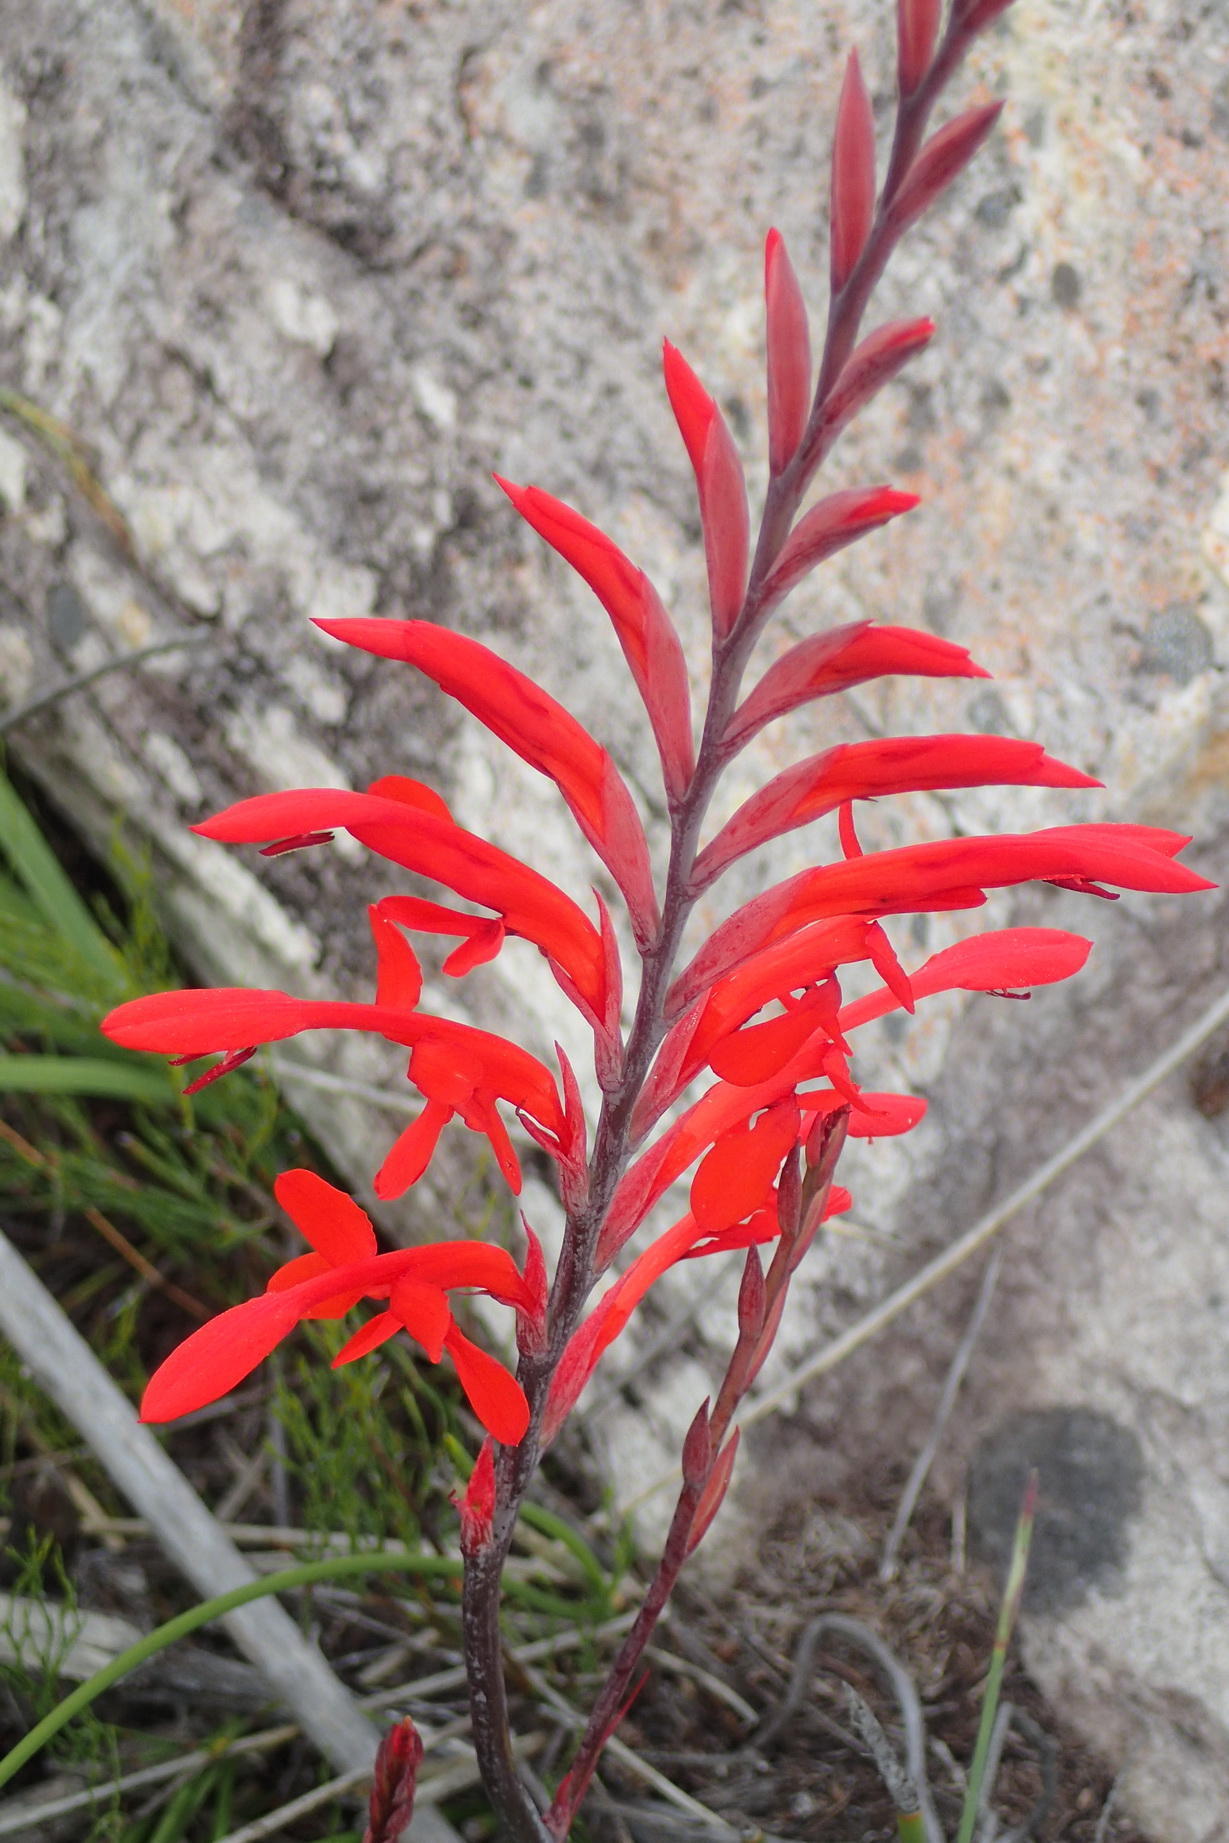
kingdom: Plantae
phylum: Tracheophyta
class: Liliopsida
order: Asparagales
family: Iridaceae
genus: Tritoniopsis
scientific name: Tritoniopsis caffra
